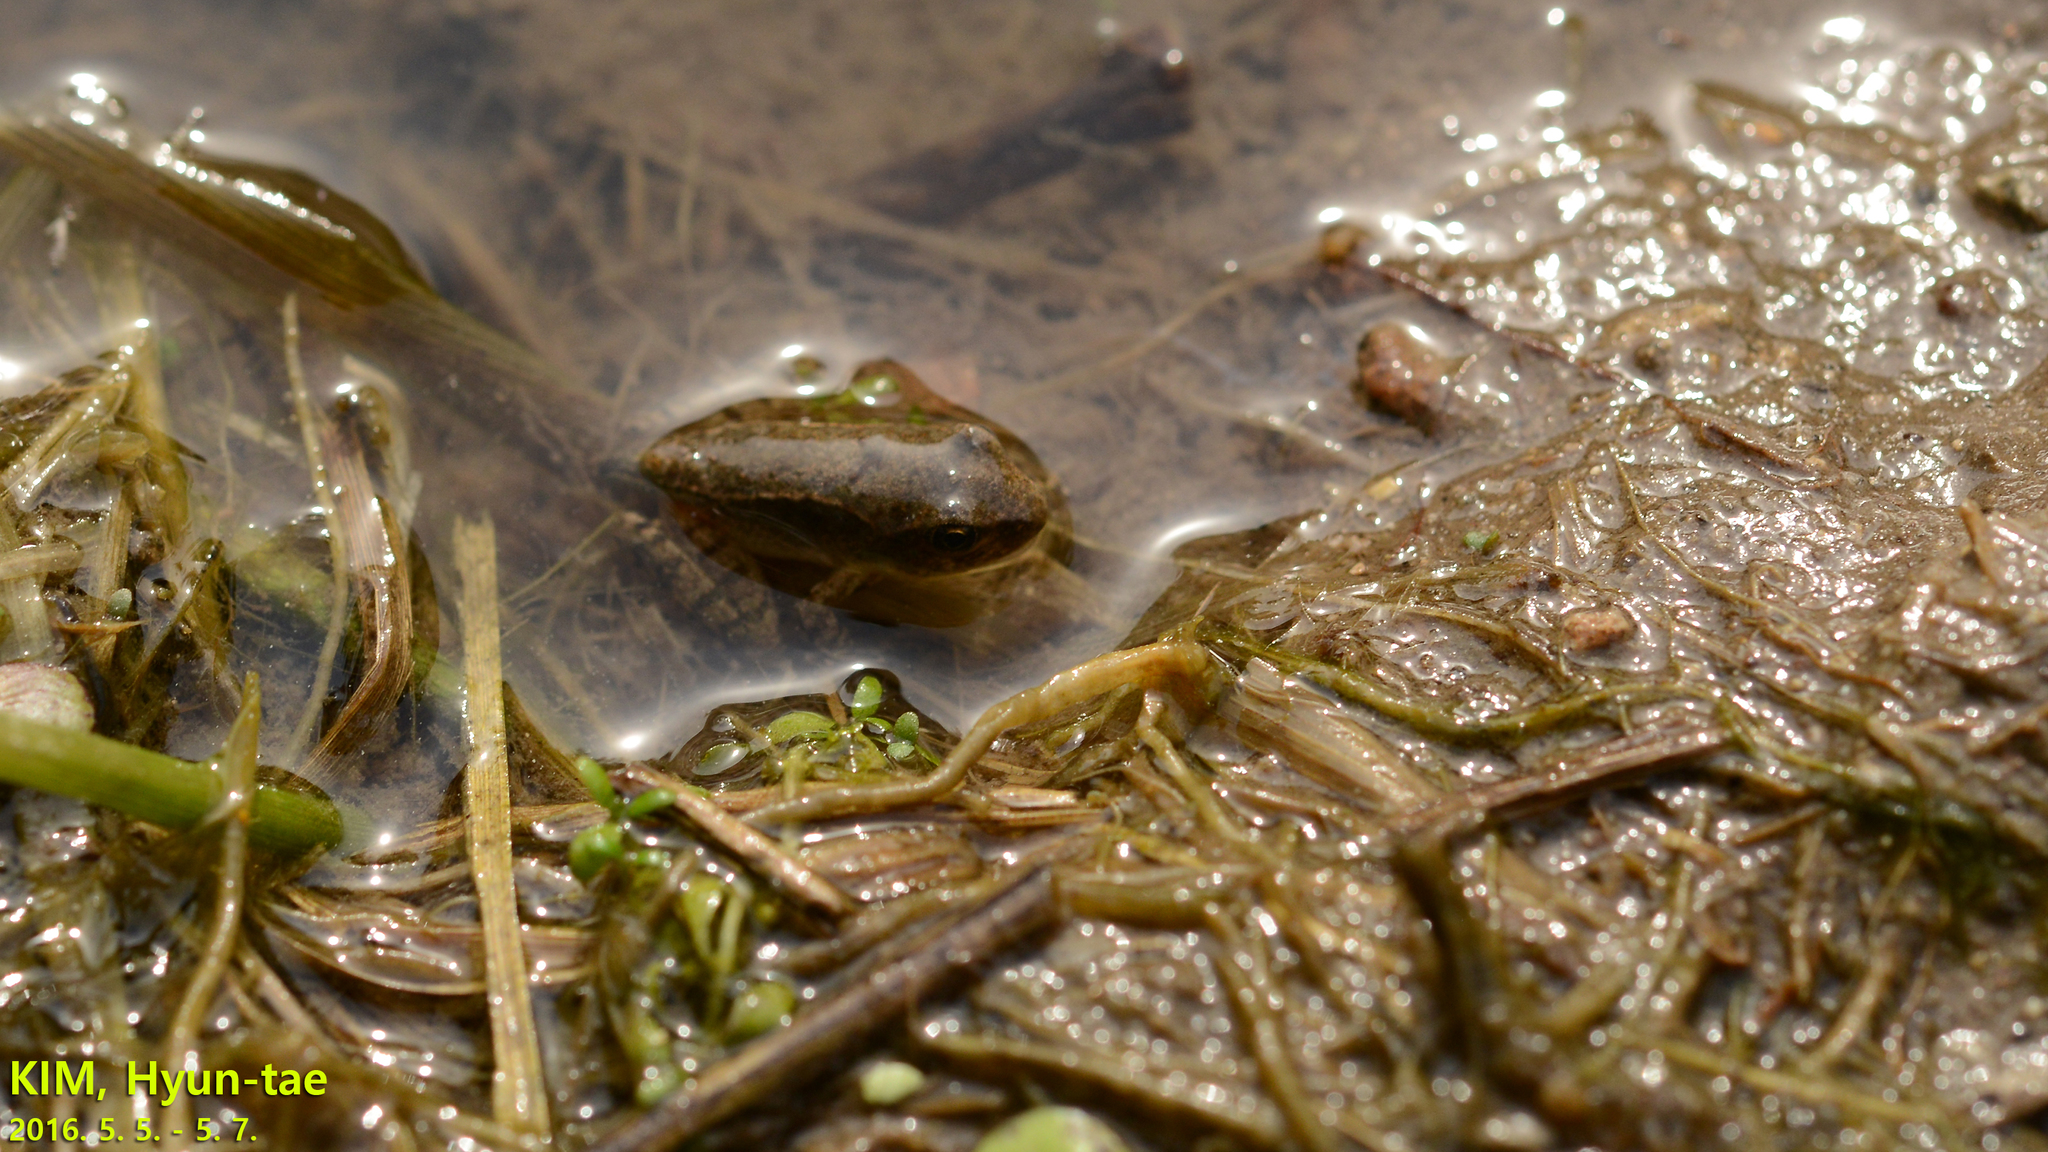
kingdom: Animalia
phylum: Chordata
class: Amphibia
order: Anura
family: Ranidae
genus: Rana
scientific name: Rana uenoi
